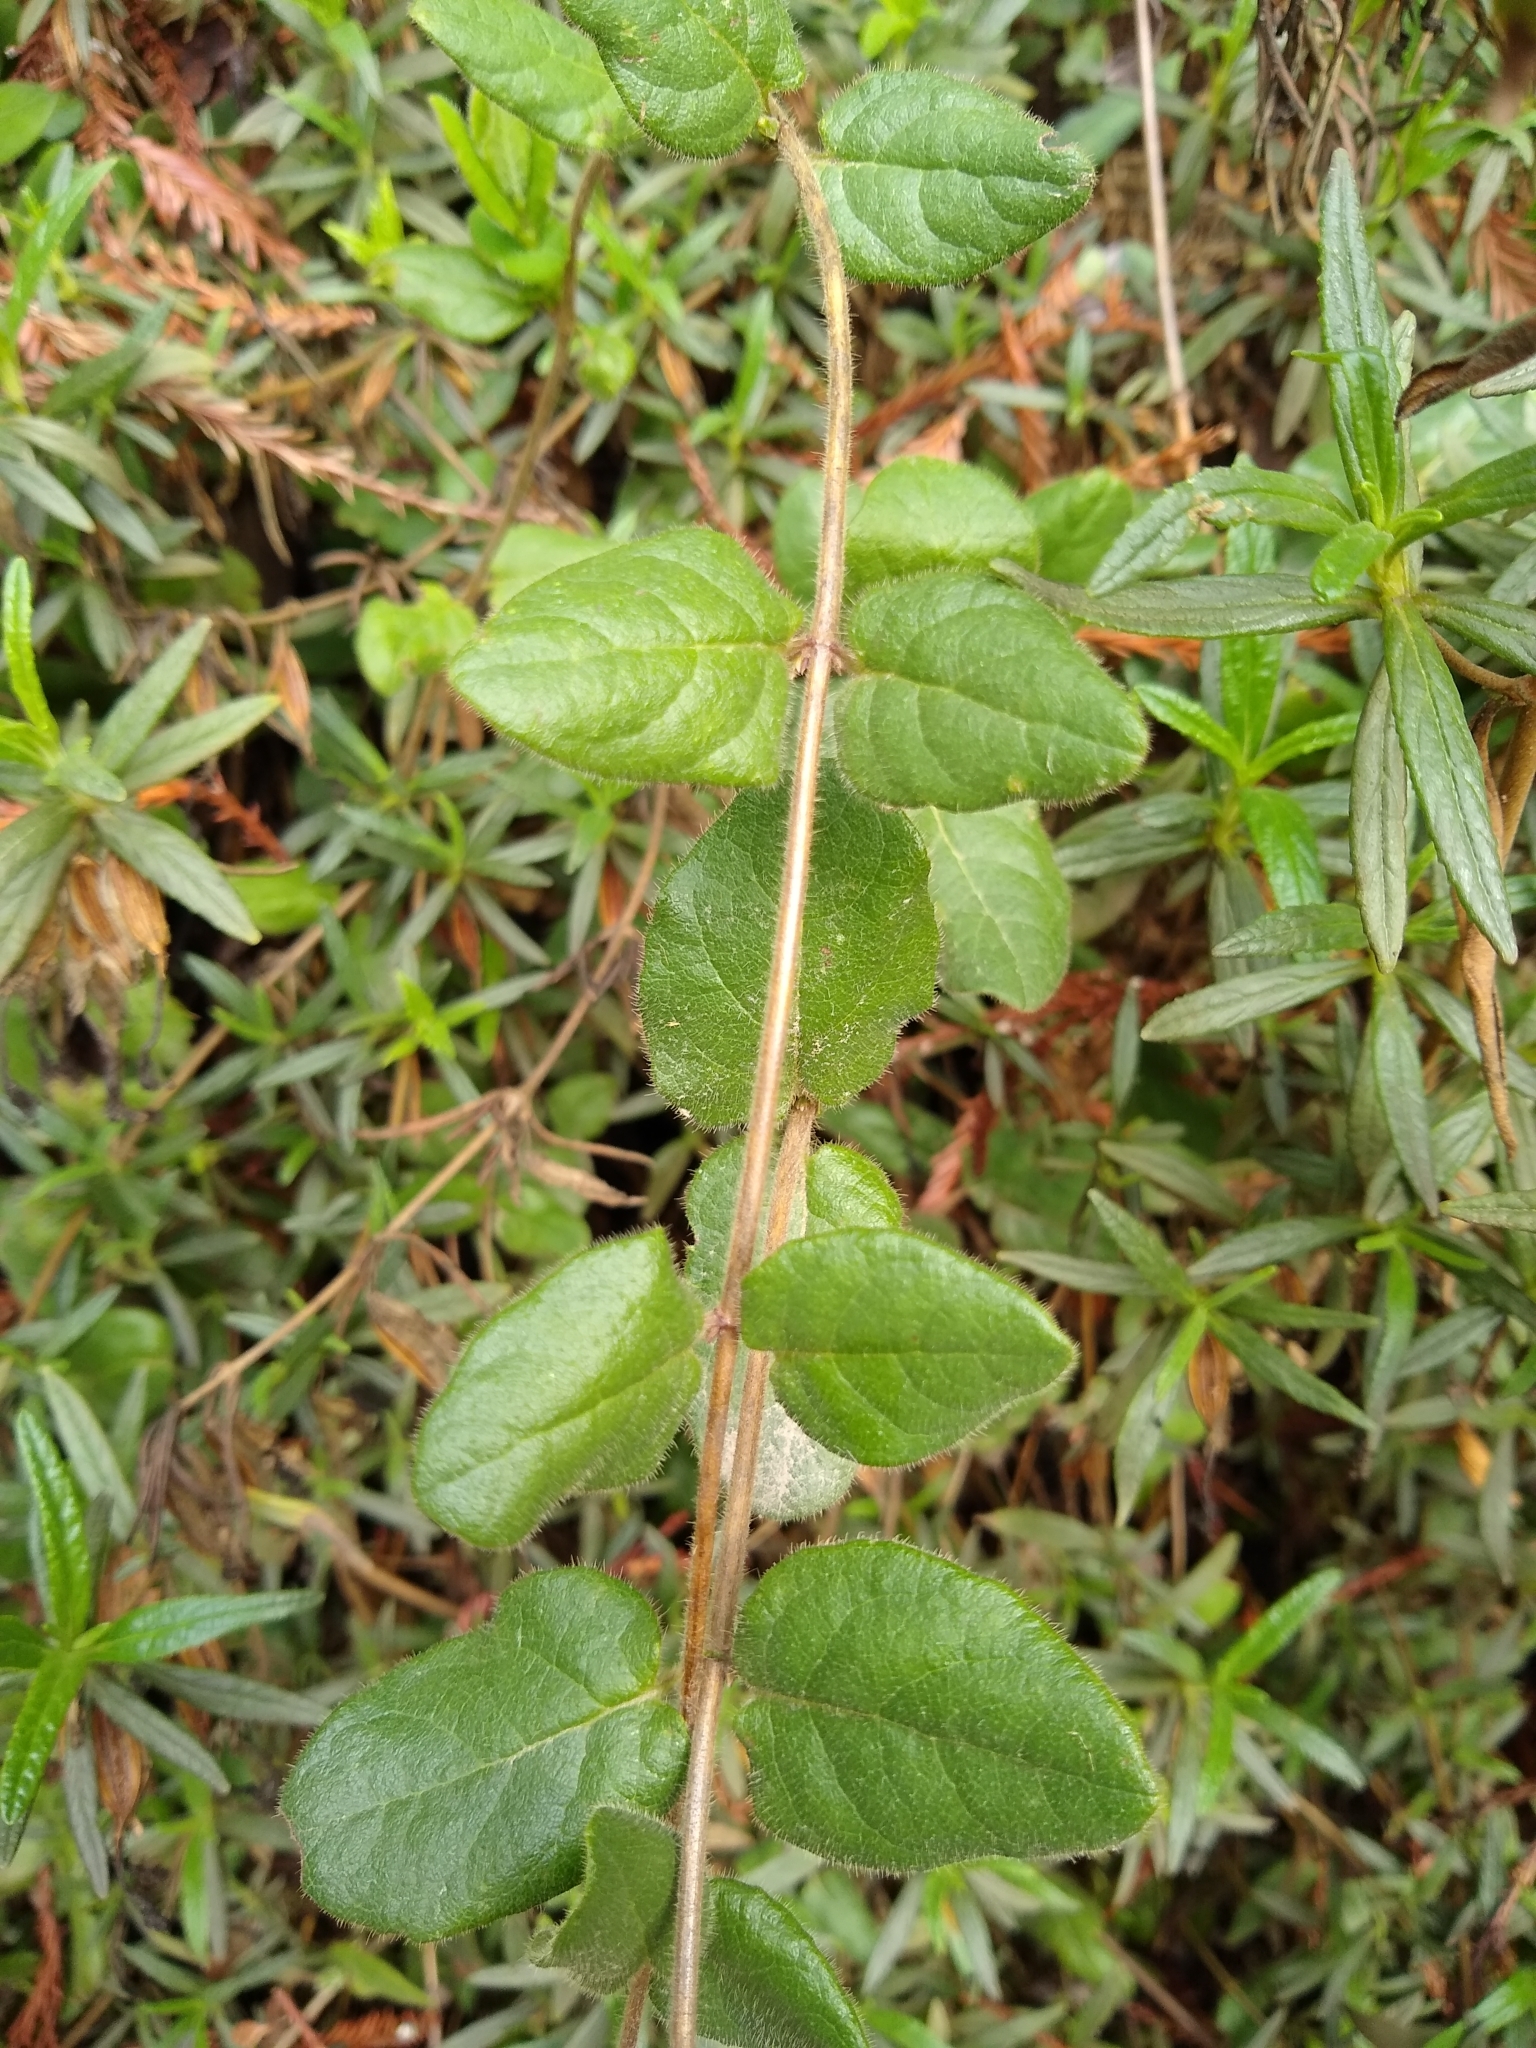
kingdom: Plantae
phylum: Tracheophyta
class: Magnoliopsida
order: Dipsacales
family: Caprifoliaceae
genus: Lonicera
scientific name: Lonicera hispidula
